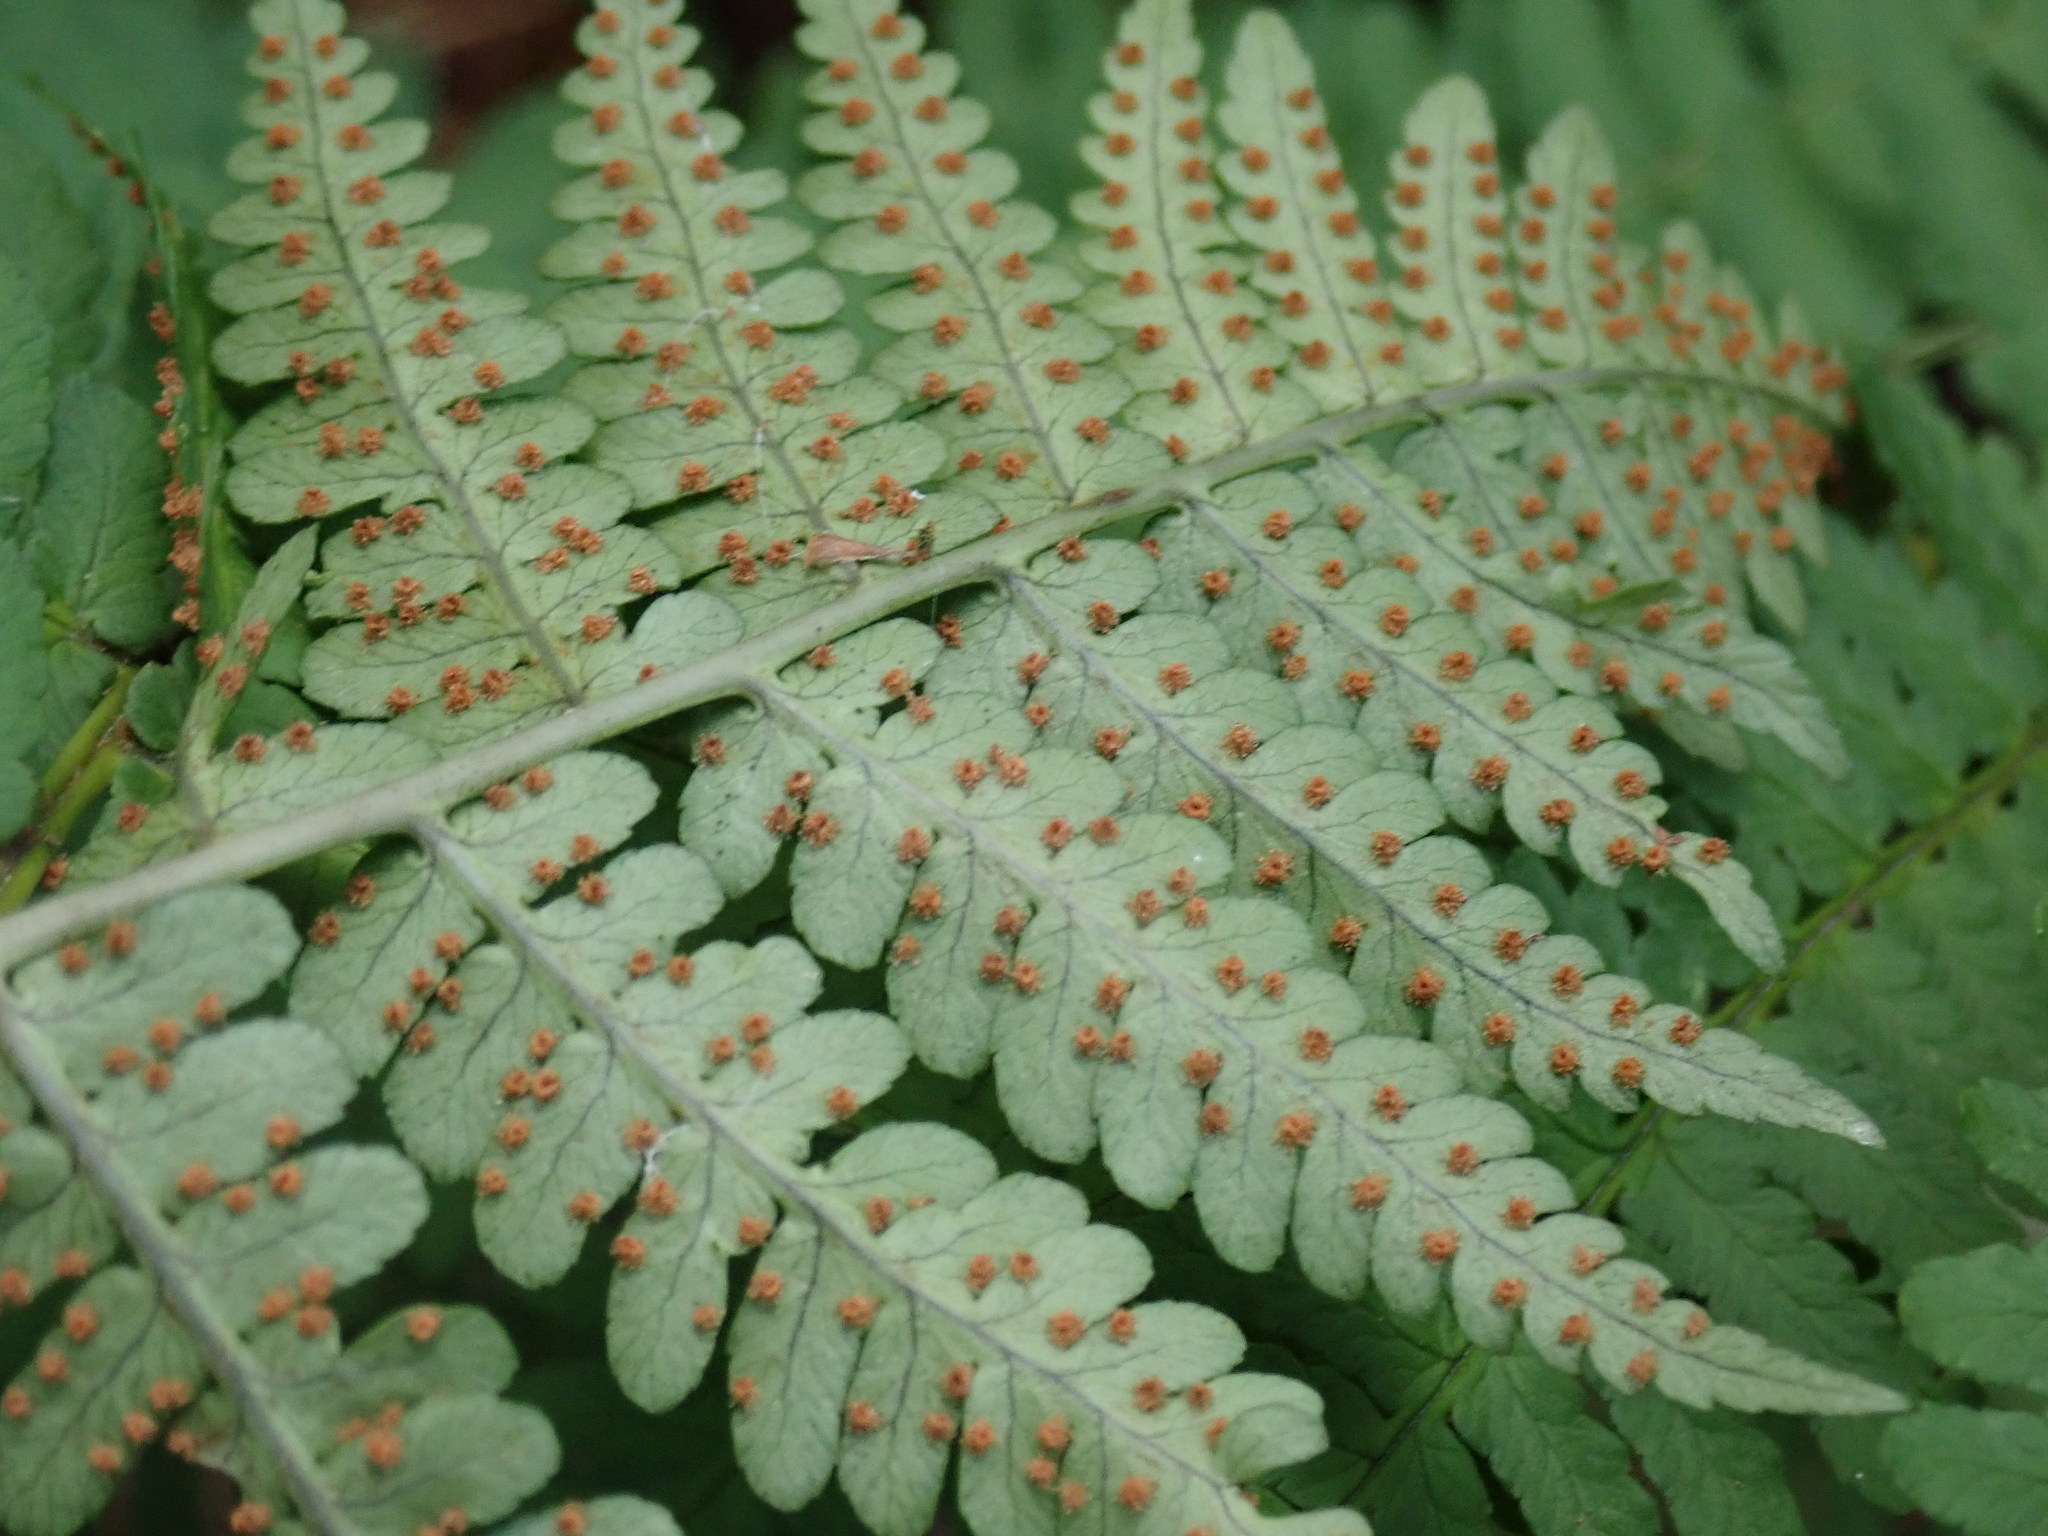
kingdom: Plantae
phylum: Tracheophyta
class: Polypodiopsida
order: Polypodiales
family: Dryopteridaceae
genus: Dryopteris
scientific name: Dryopteris marginalis
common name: Marginal wood fern
